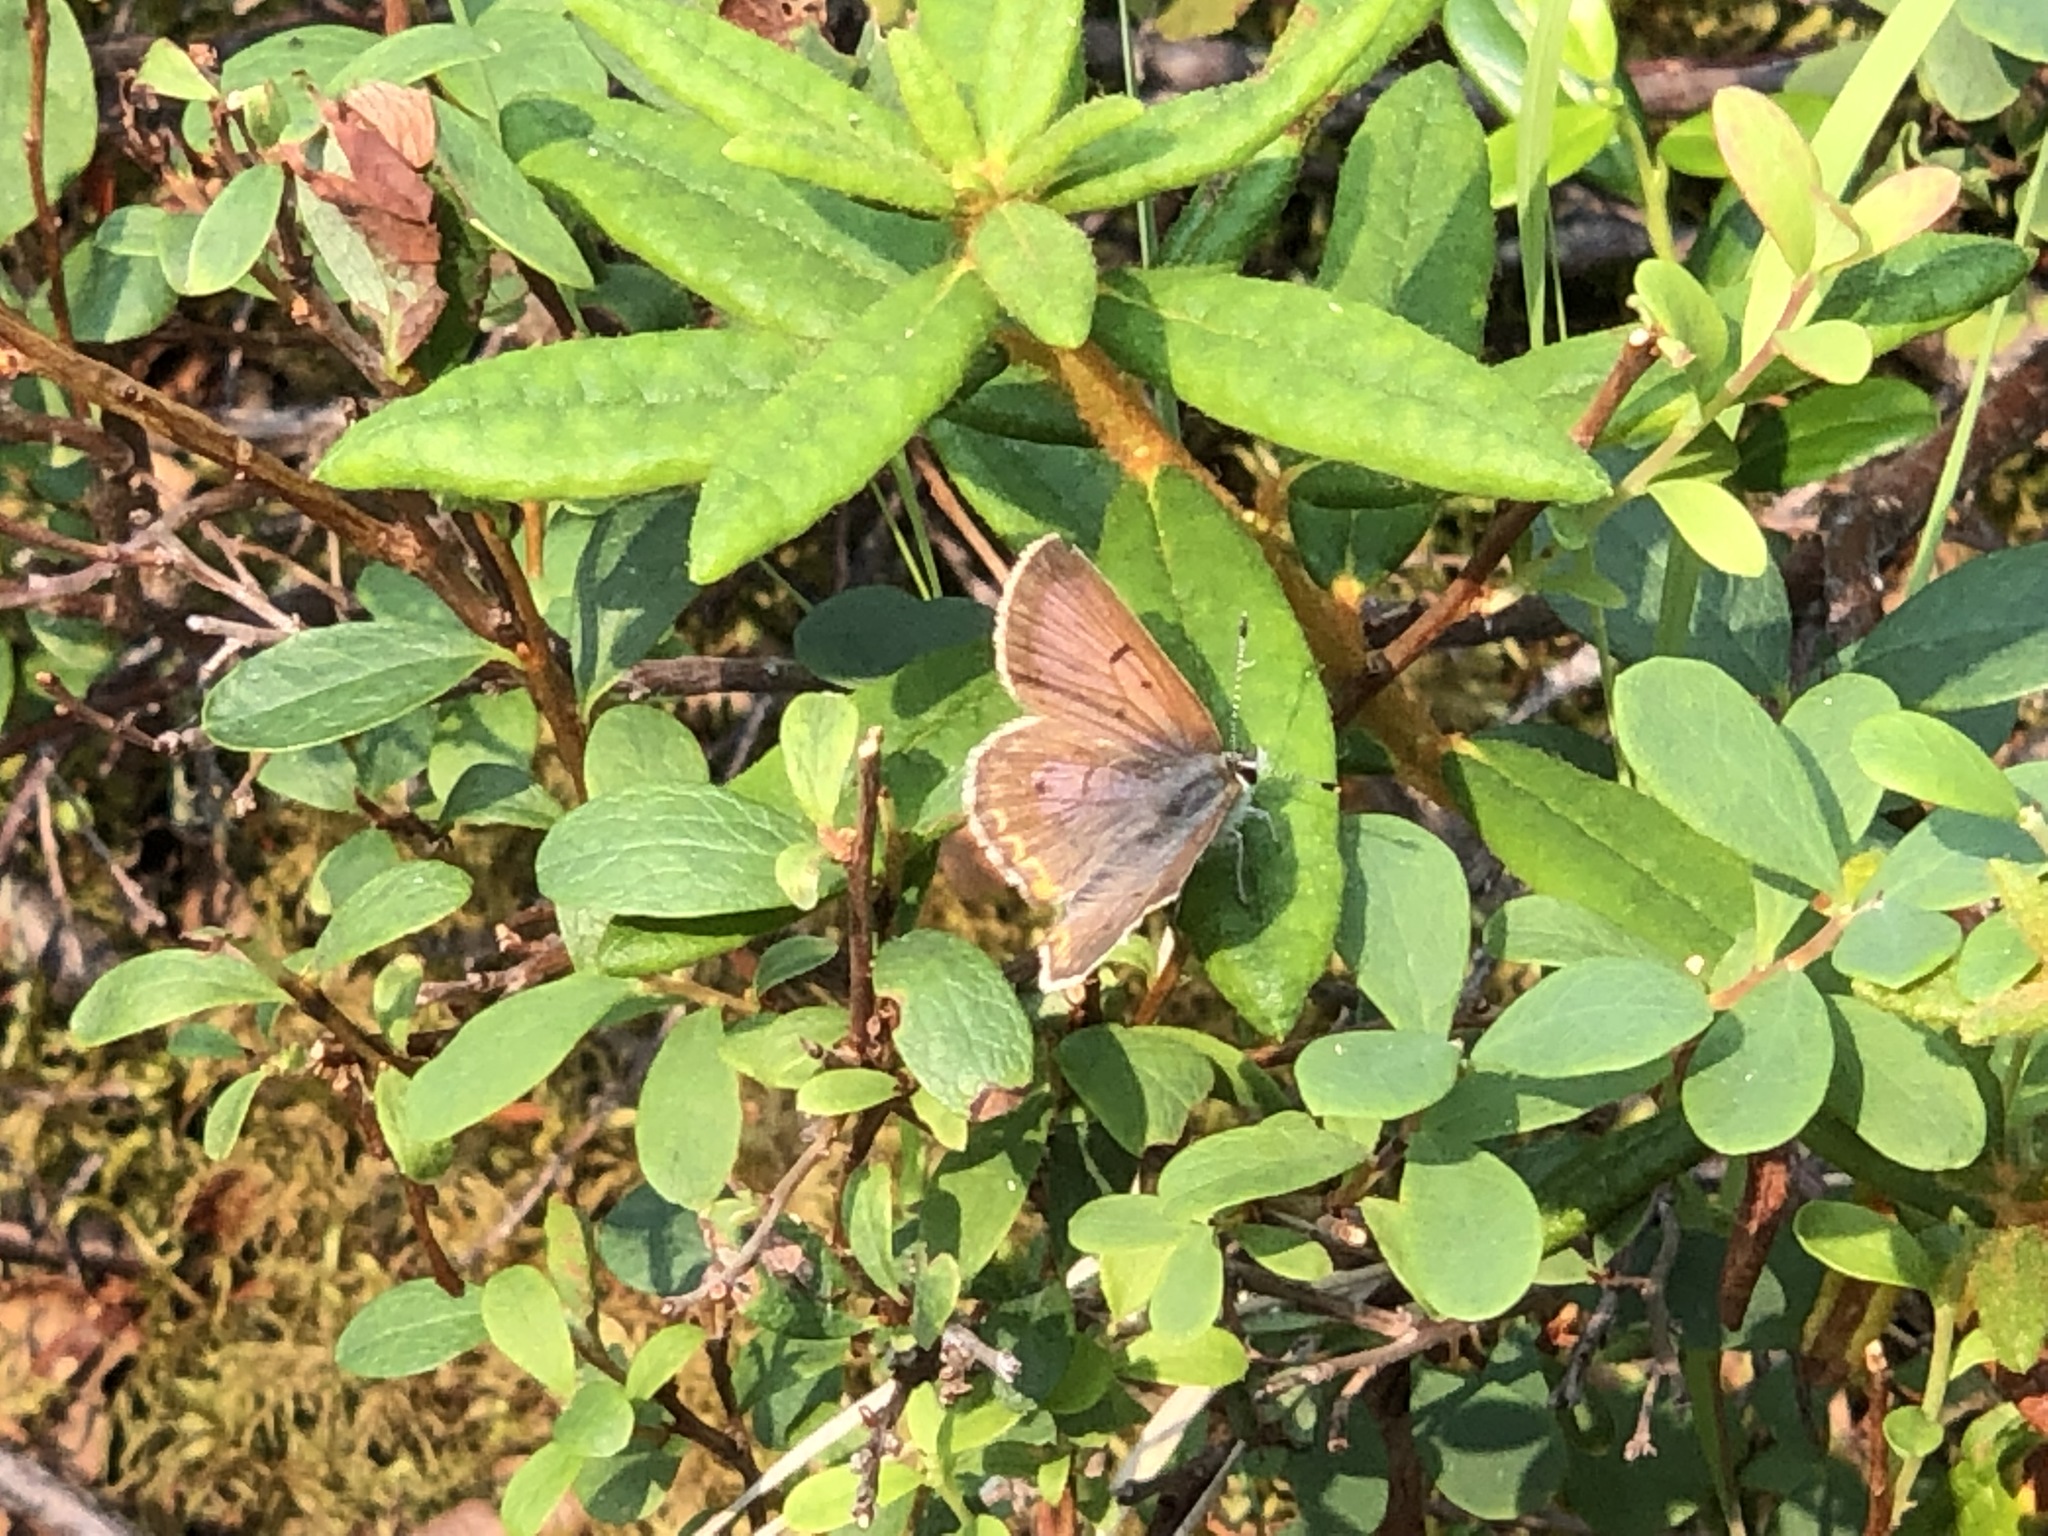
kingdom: Animalia
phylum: Arthropoda
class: Insecta
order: Lepidoptera
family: Lycaenidae
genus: Tharsalea
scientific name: Tharsalea dorcas
